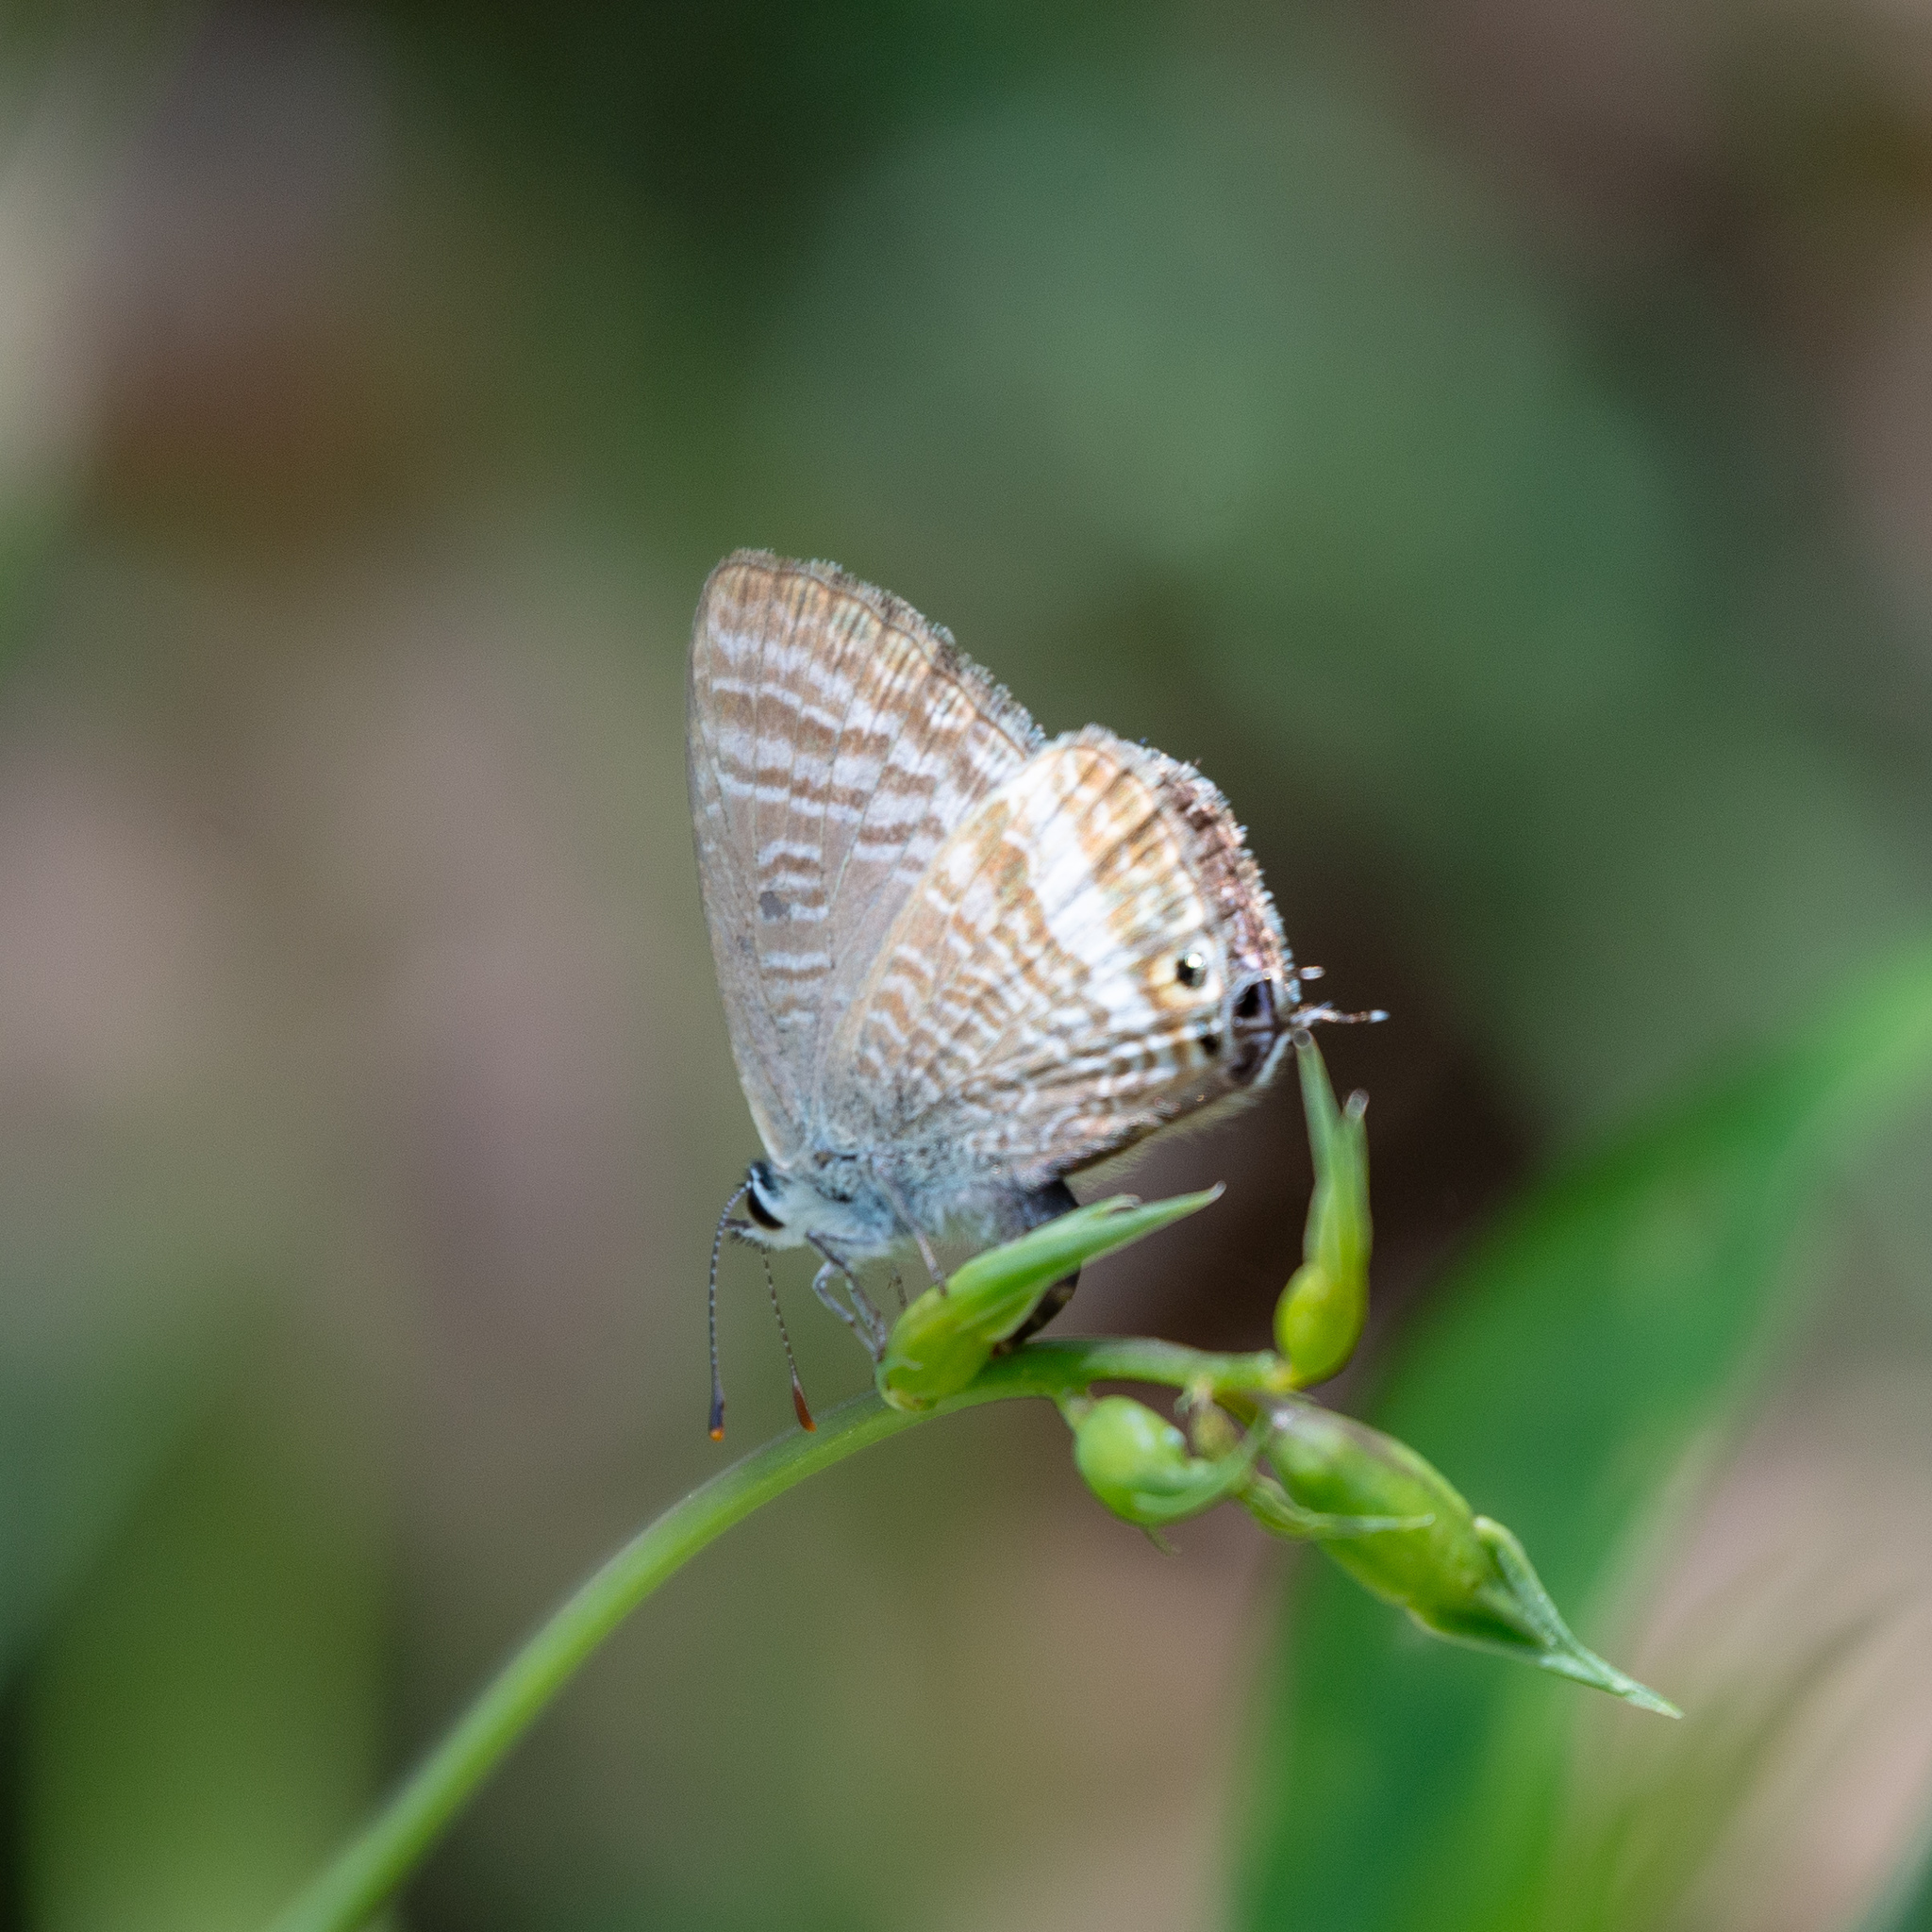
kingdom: Animalia
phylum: Arthropoda
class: Insecta
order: Lepidoptera
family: Lycaenidae
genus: Lampides
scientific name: Lampides boeticus
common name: Long-tailed blue
